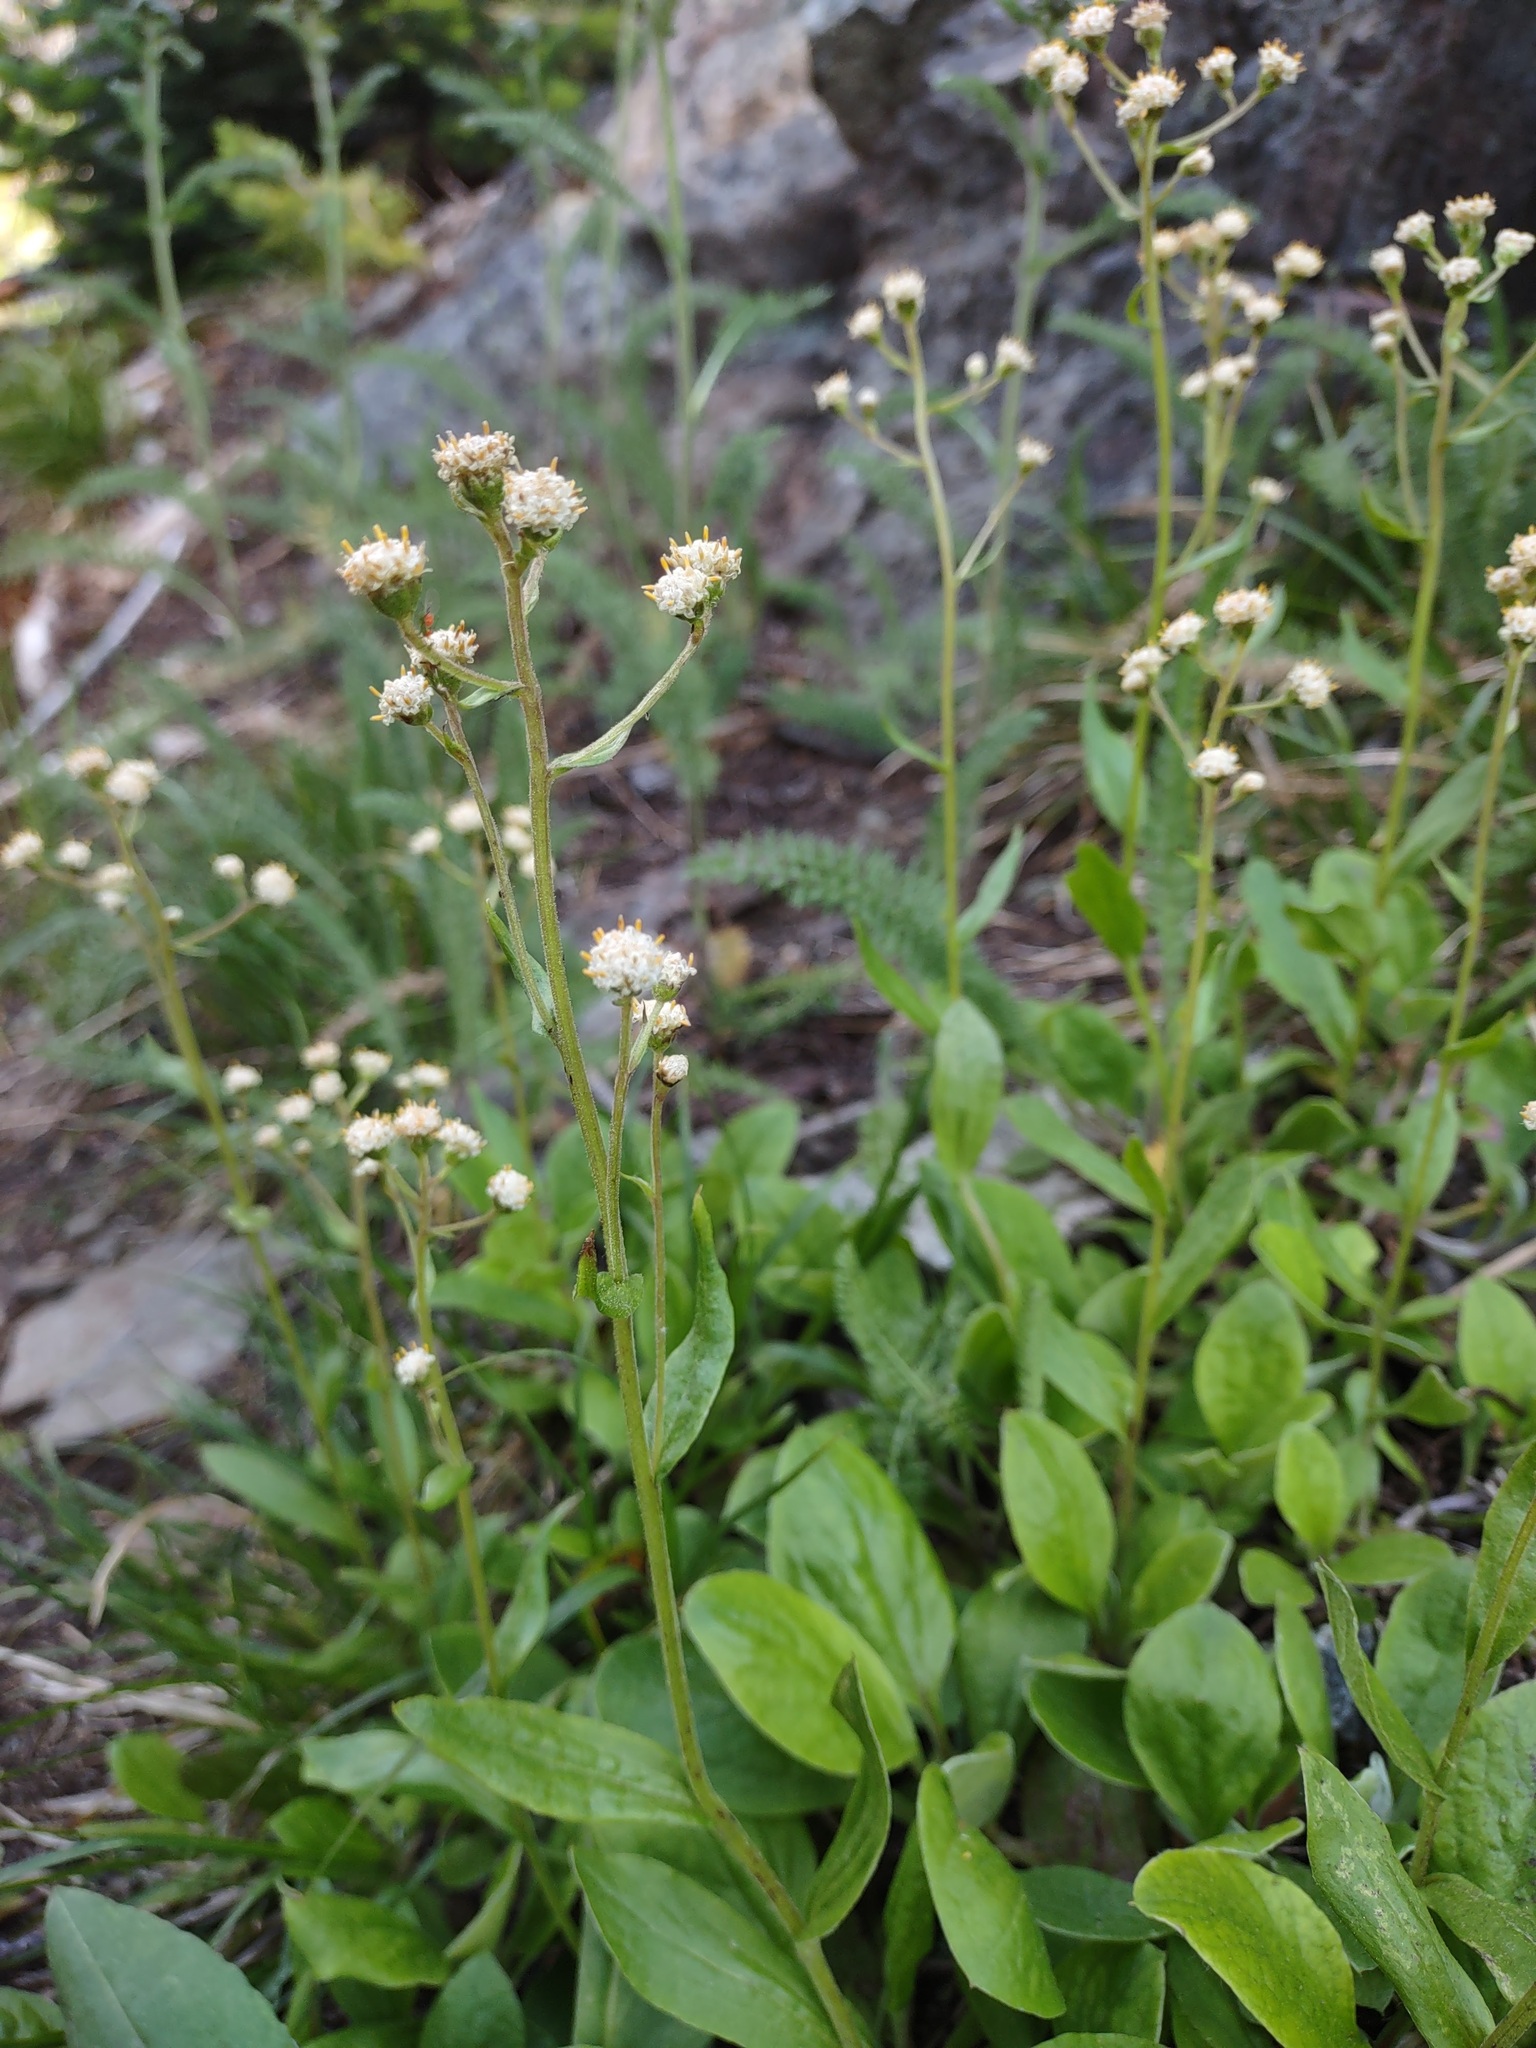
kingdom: Plantae
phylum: Tracheophyta
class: Magnoliopsida
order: Asterales
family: Asteraceae
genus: Antennaria
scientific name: Antennaria racemosa
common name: Racemose pussytoes
